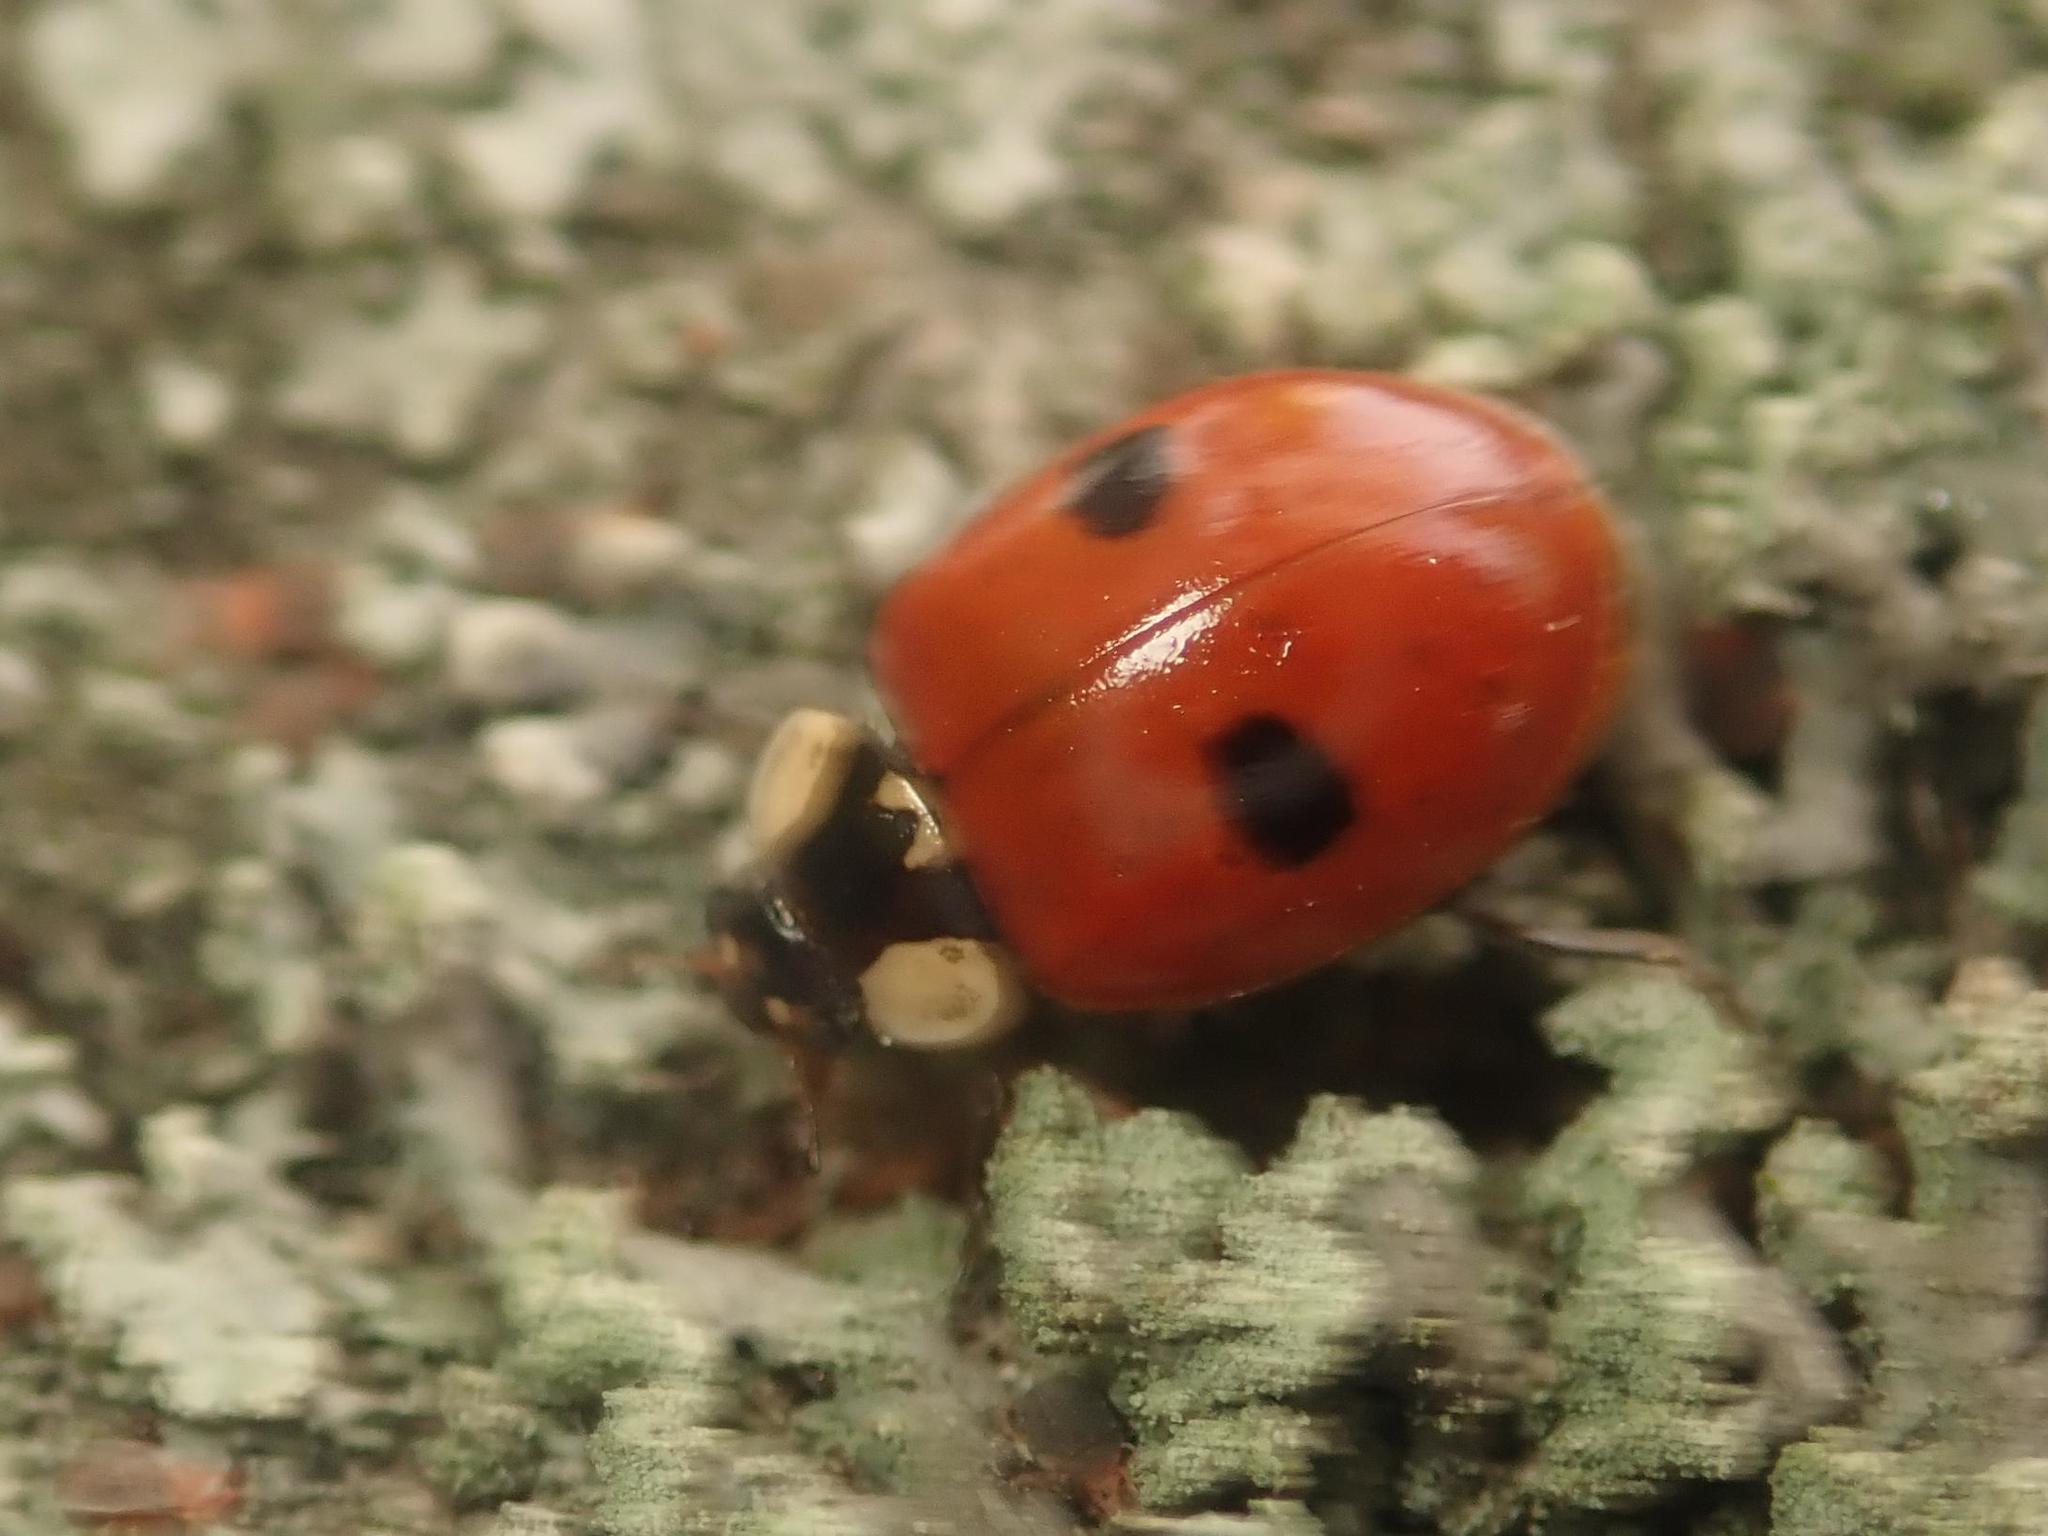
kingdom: Animalia
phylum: Arthropoda
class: Insecta
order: Coleoptera
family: Coccinellidae
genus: Adalia
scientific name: Adalia bipunctata
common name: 2-spot ladybird
